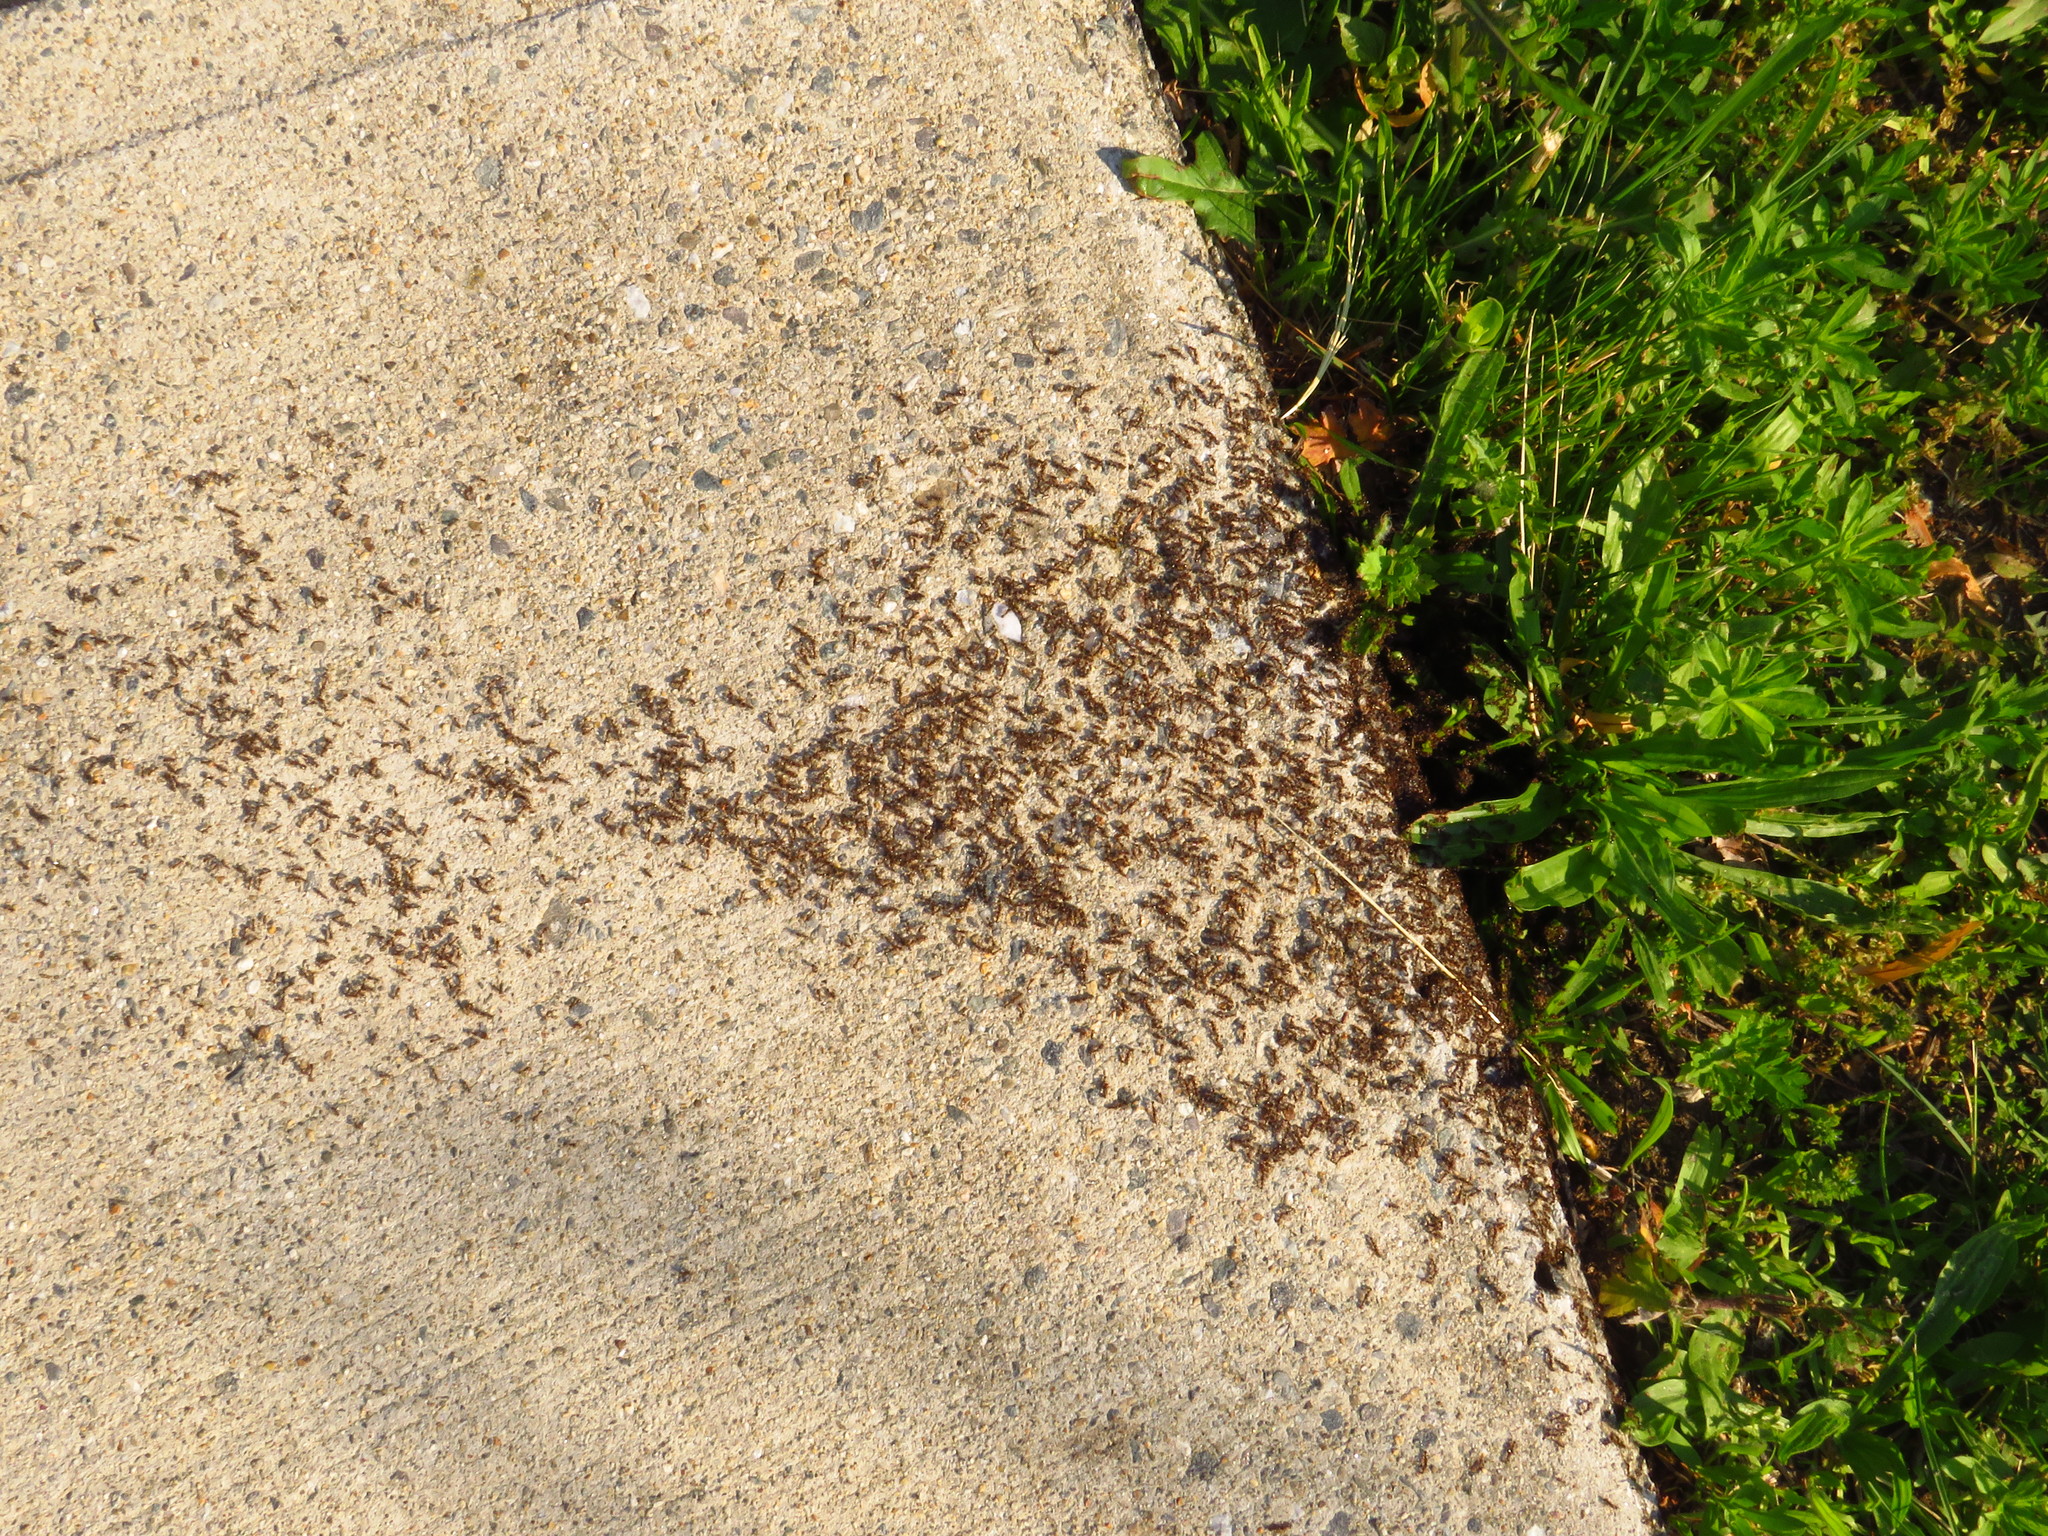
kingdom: Animalia
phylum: Arthropoda
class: Insecta
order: Hymenoptera
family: Formicidae
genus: Tetramorium
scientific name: Tetramorium immigrans
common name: Pavement ant
